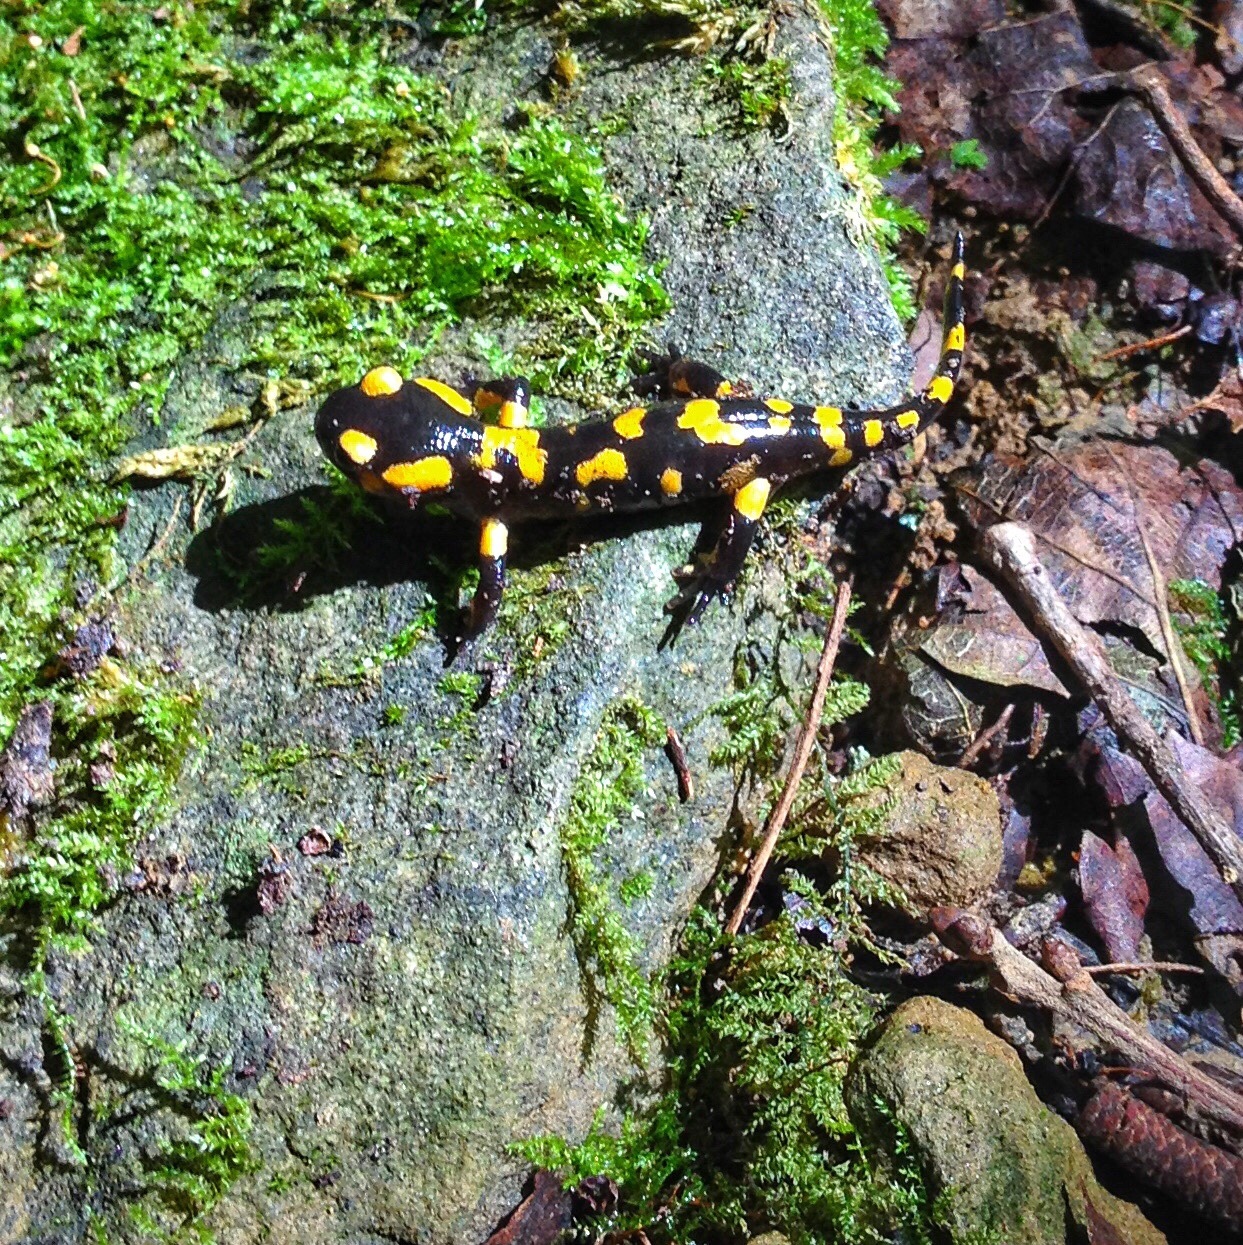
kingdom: Animalia
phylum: Chordata
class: Amphibia
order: Caudata
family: Salamandridae
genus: Salamandra
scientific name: Salamandra salamandra
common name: Fire salamander
